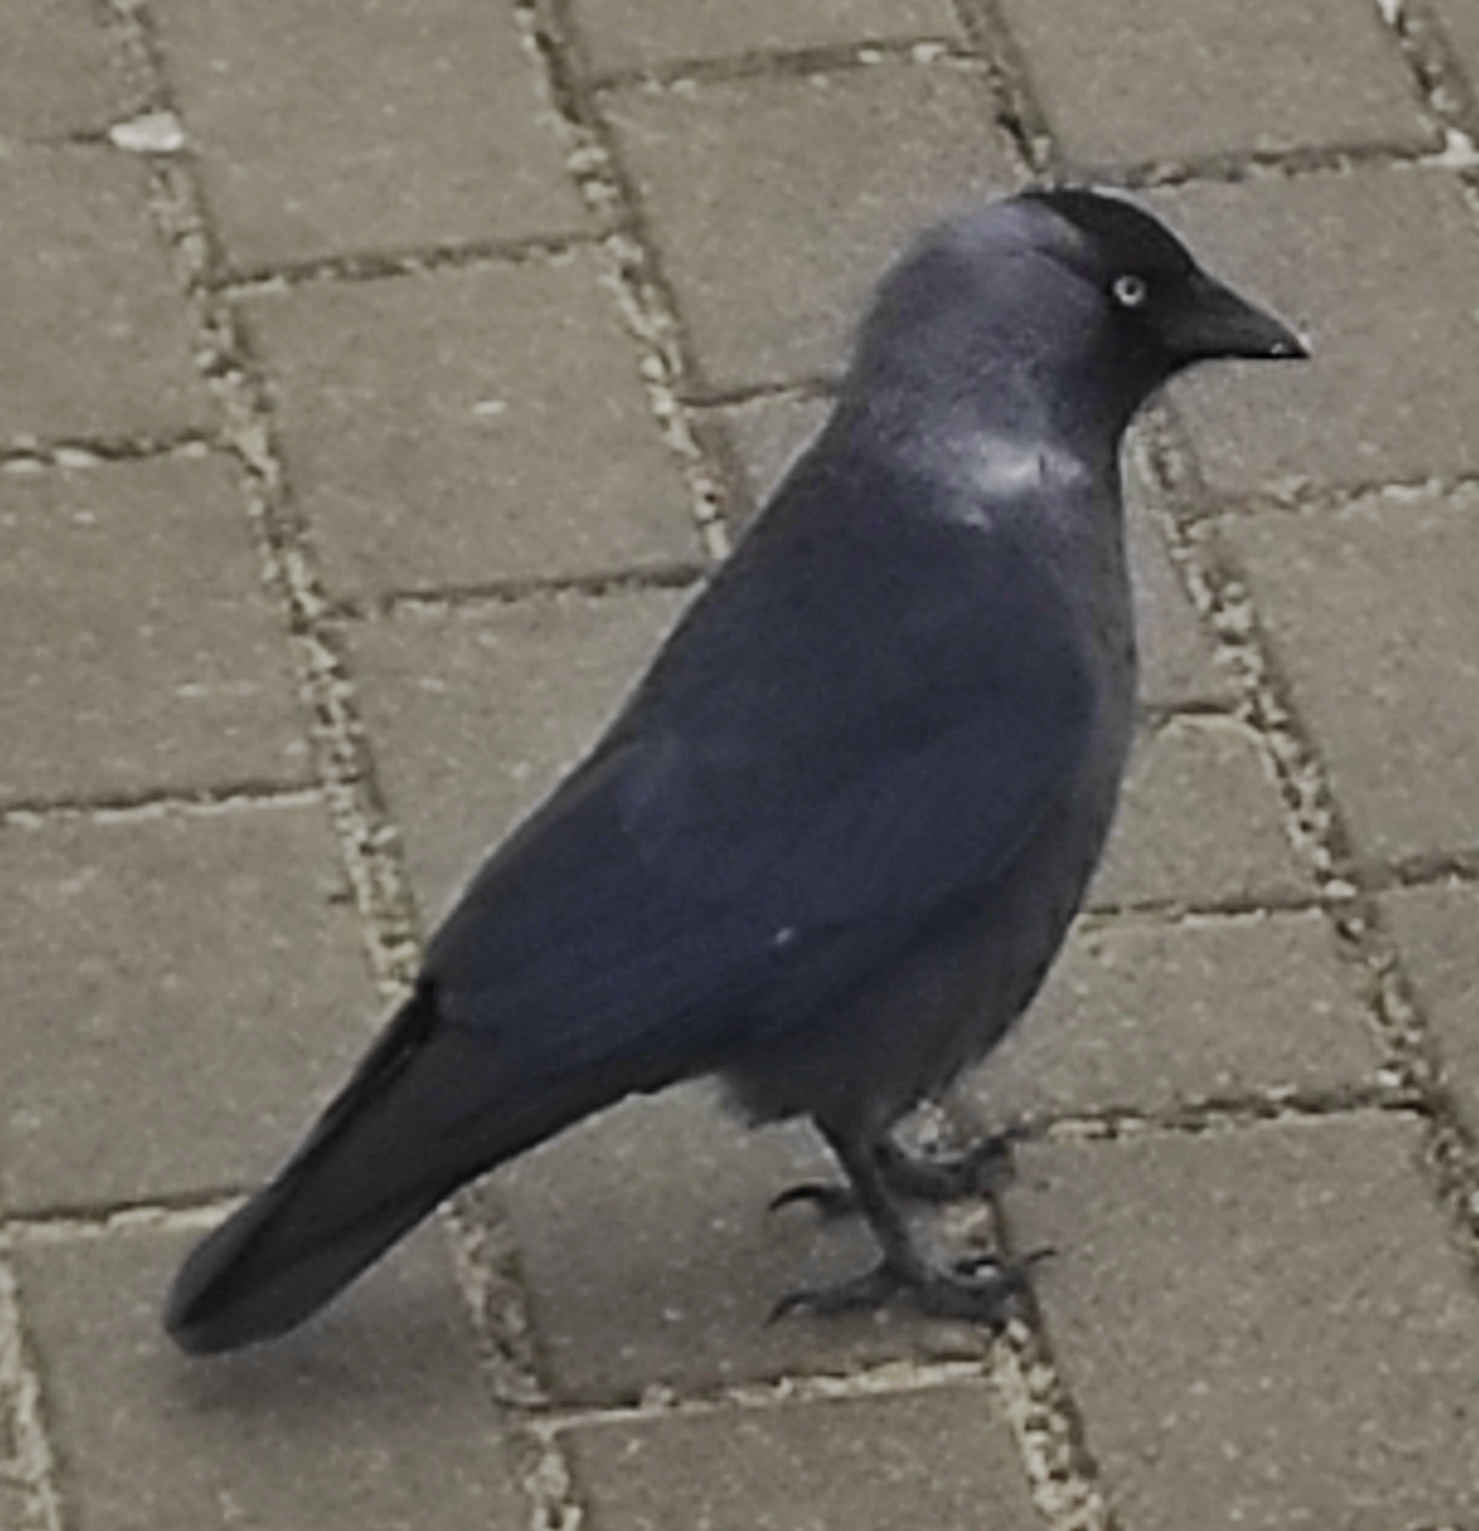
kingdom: Animalia
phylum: Chordata
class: Aves
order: Passeriformes
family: Corvidae
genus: Coloeus
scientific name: Coloeus monedula
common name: Western jackdaw
